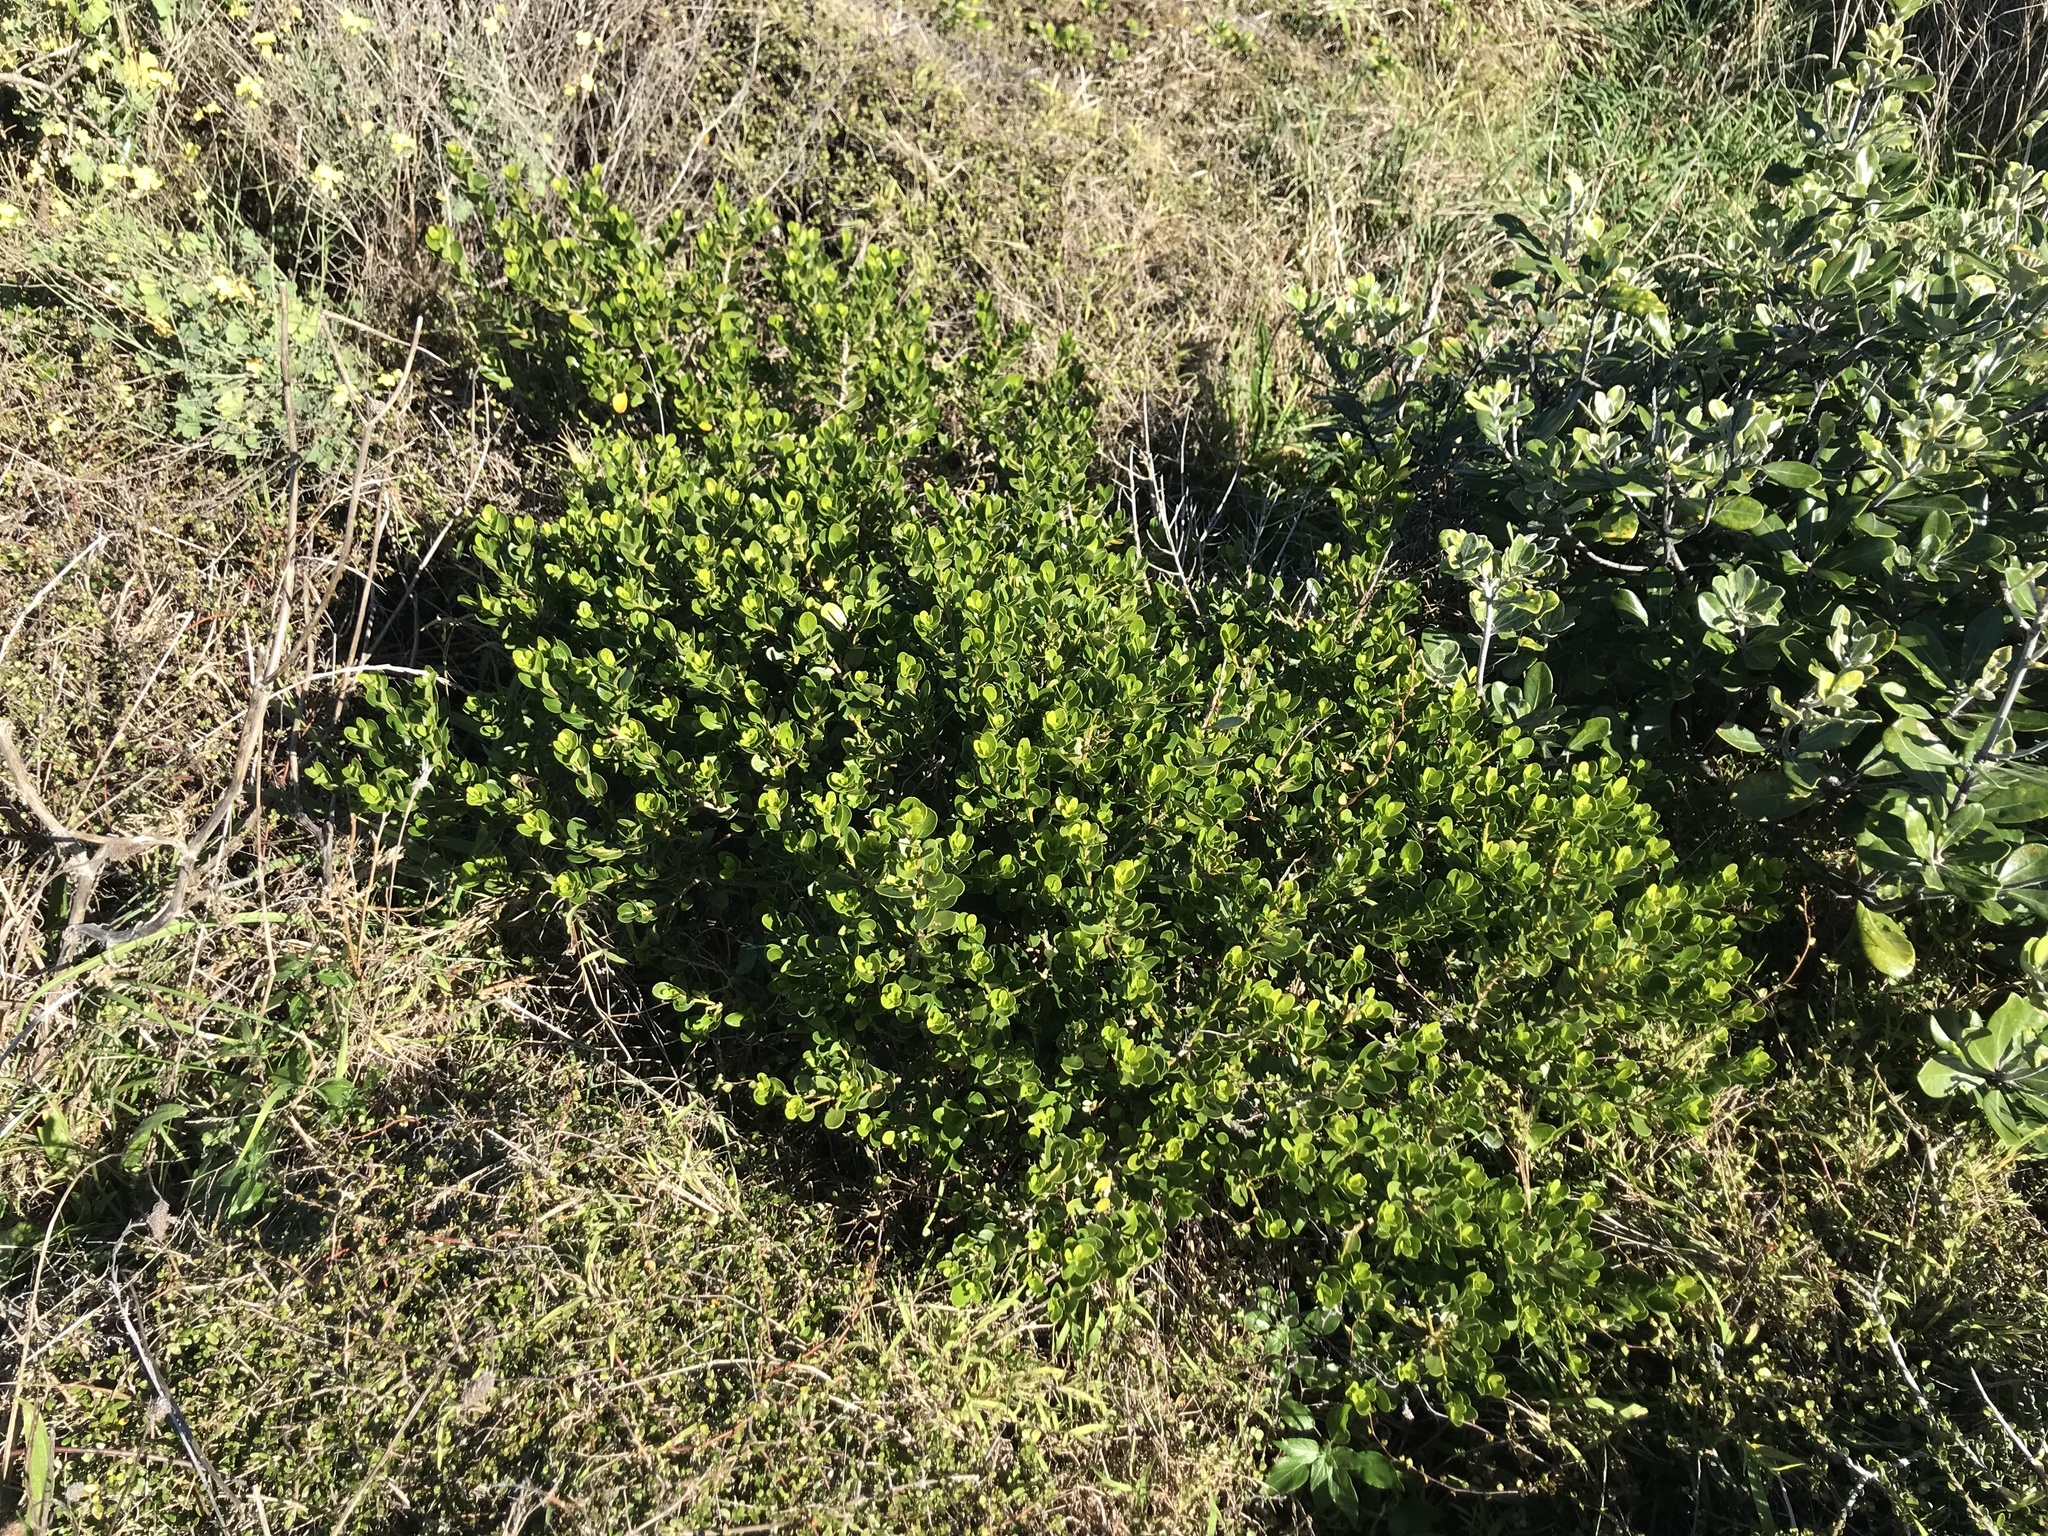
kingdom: Plantae
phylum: Tracheophyta
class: Magnoliopsida
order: Malpighiales
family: Violaceae
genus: Melicytus
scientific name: Melicytus orarius
